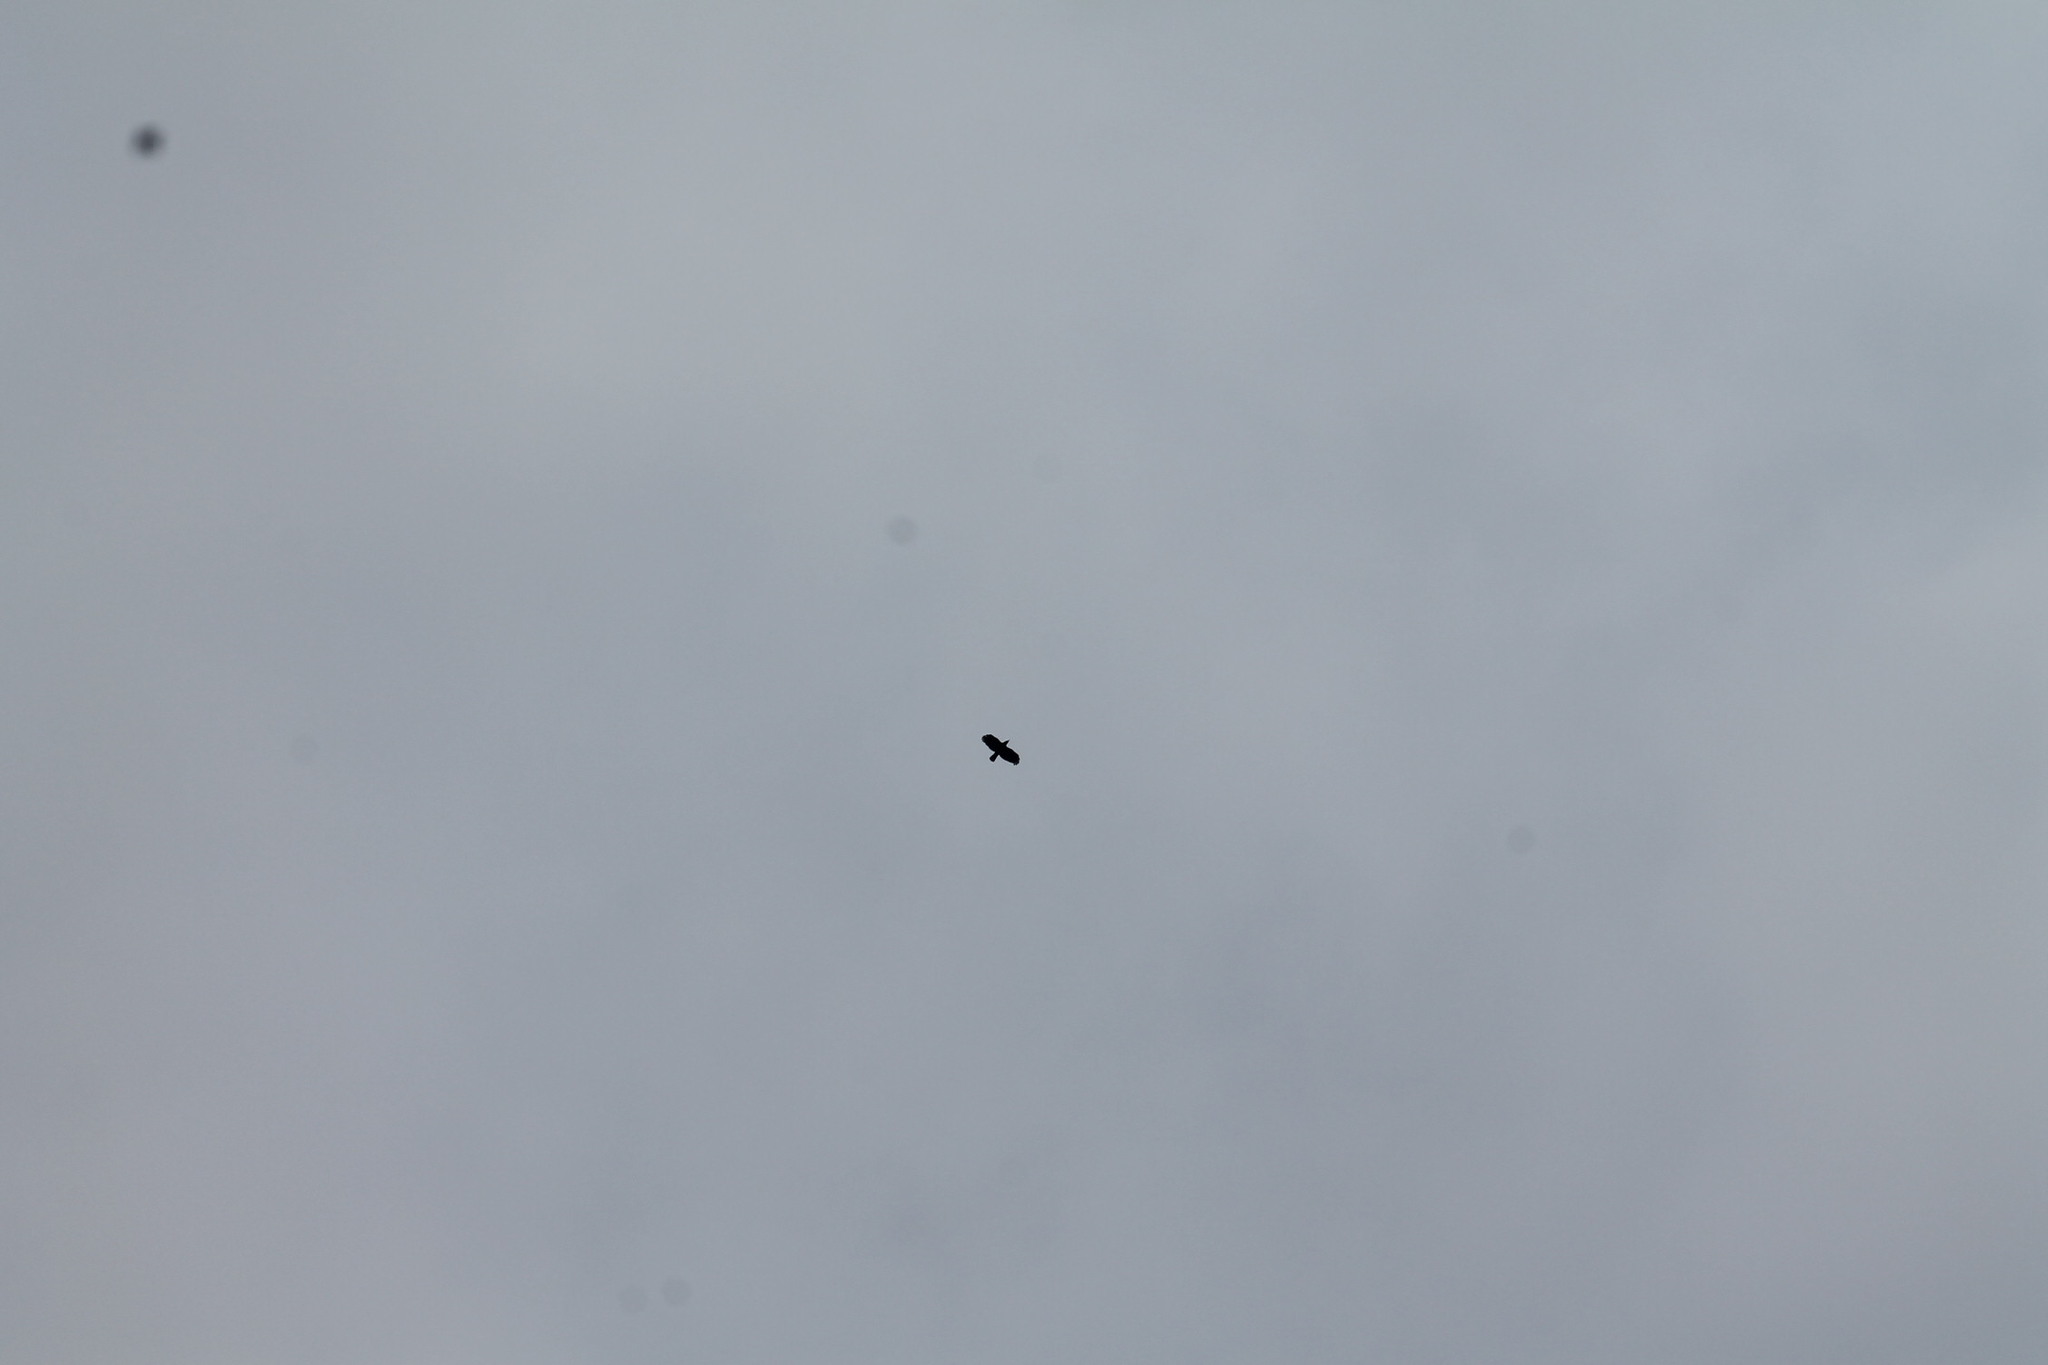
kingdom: Animalia
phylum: Chordata
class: Aves
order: Passeriformes
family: Corvidae
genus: Corvus
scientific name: Corvus brachyrhynchos
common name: American crow
